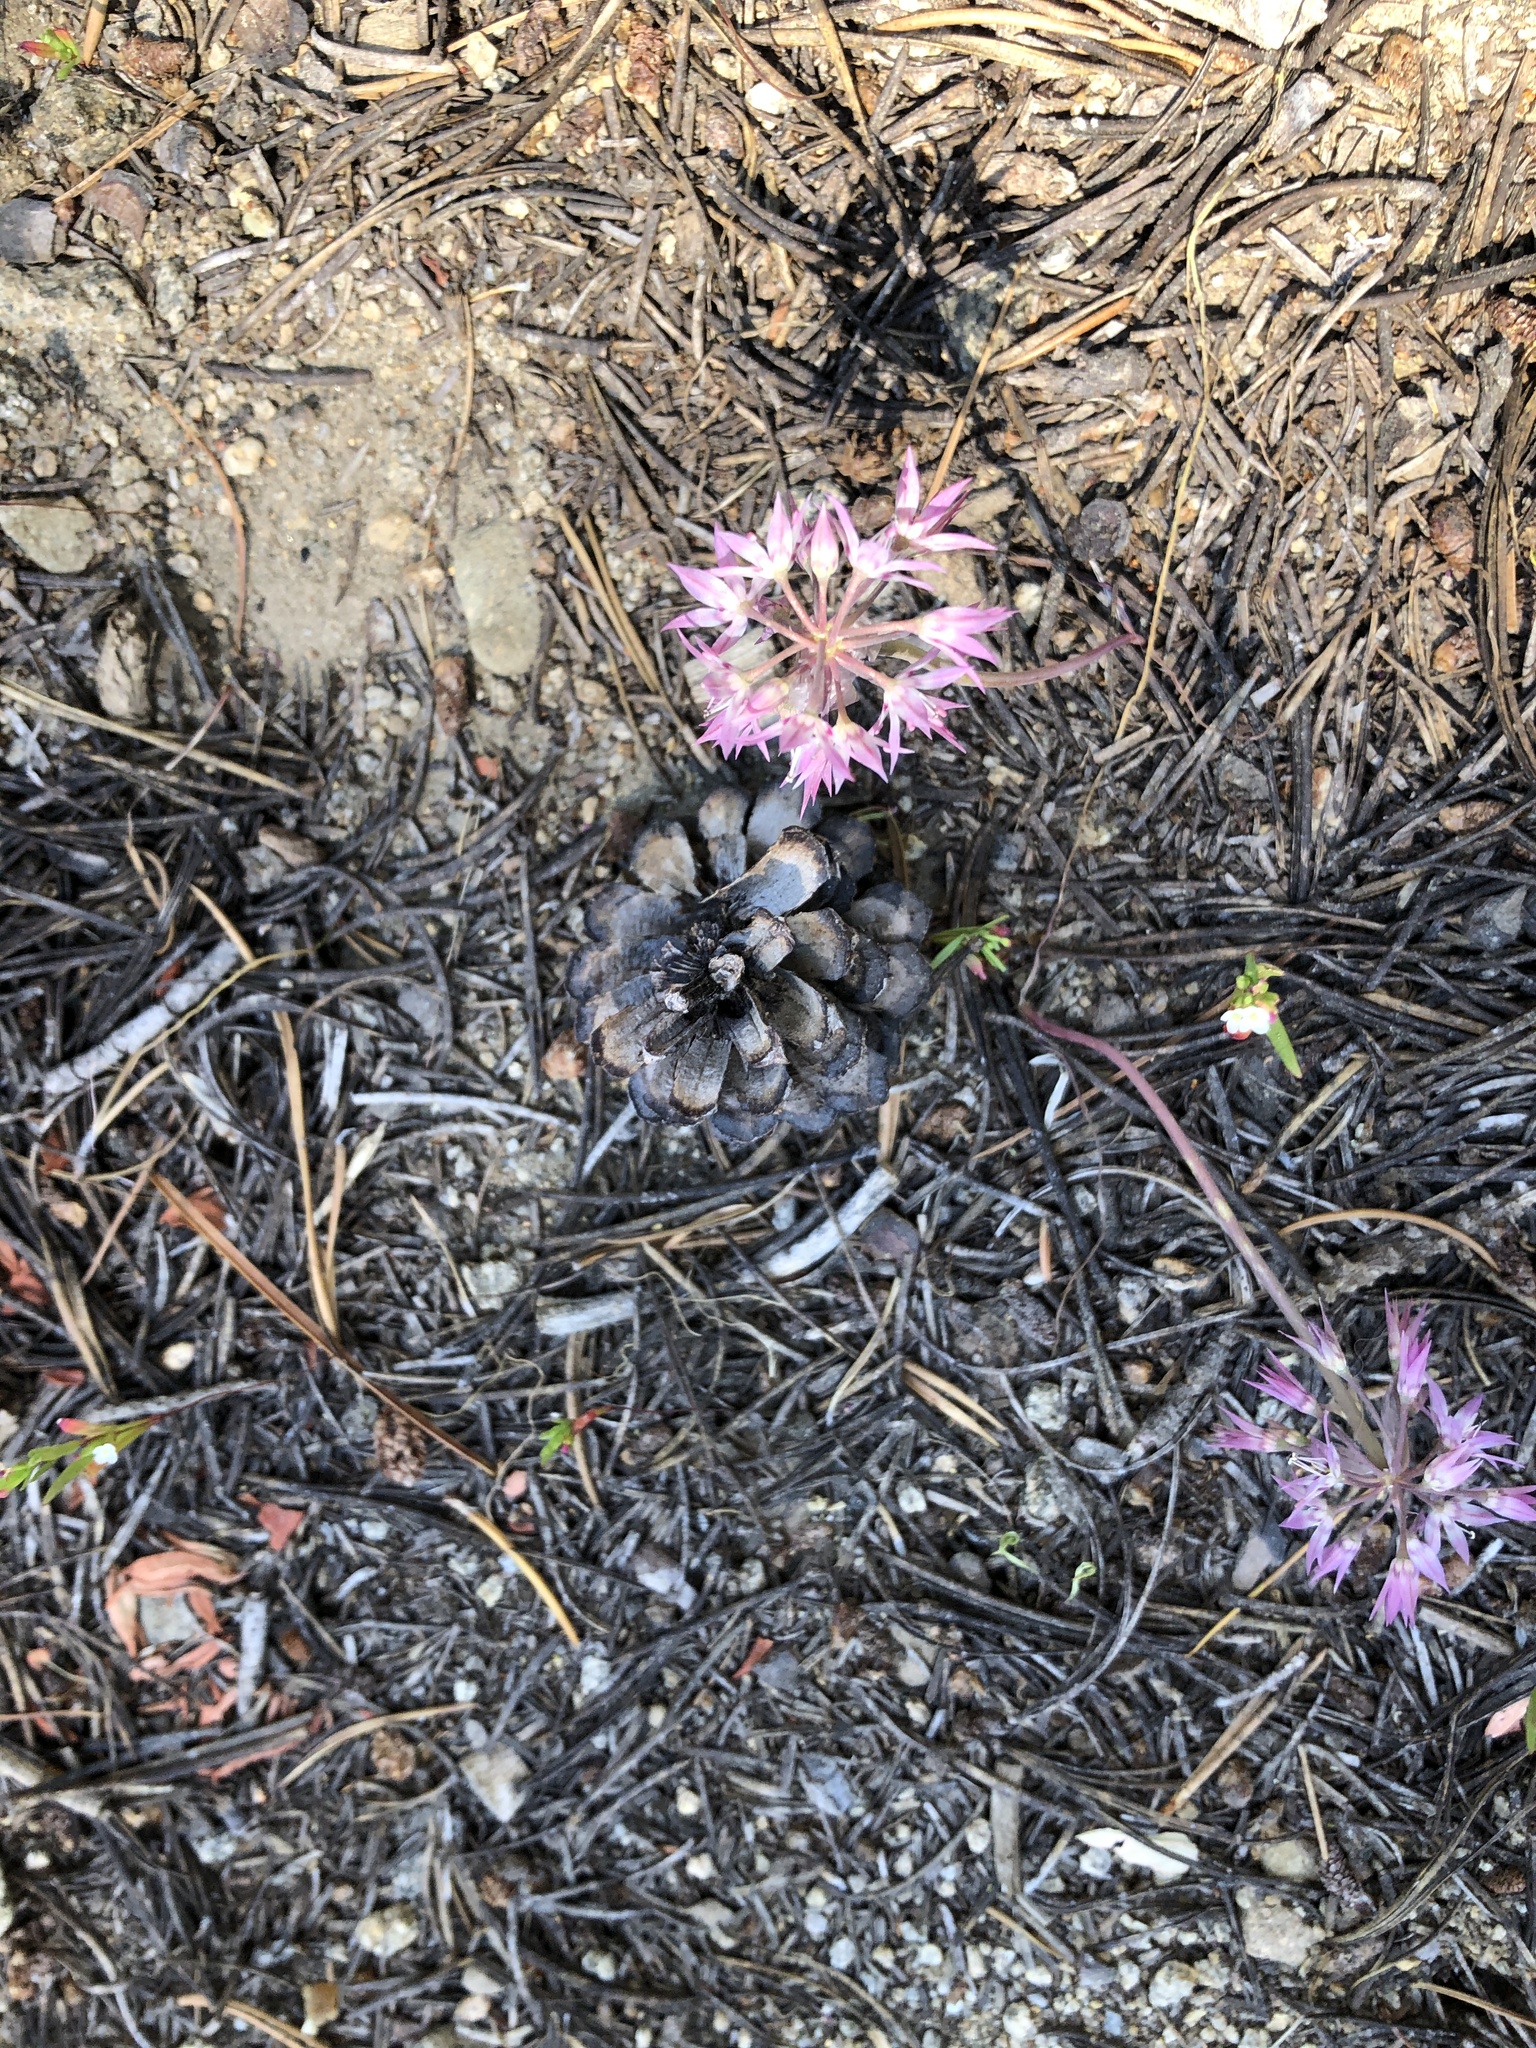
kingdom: Plantae
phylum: Tracheophyta
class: Liliopsida
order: Asparagales
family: Amaryllidaceae
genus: Allium
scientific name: Allium campanulatum
